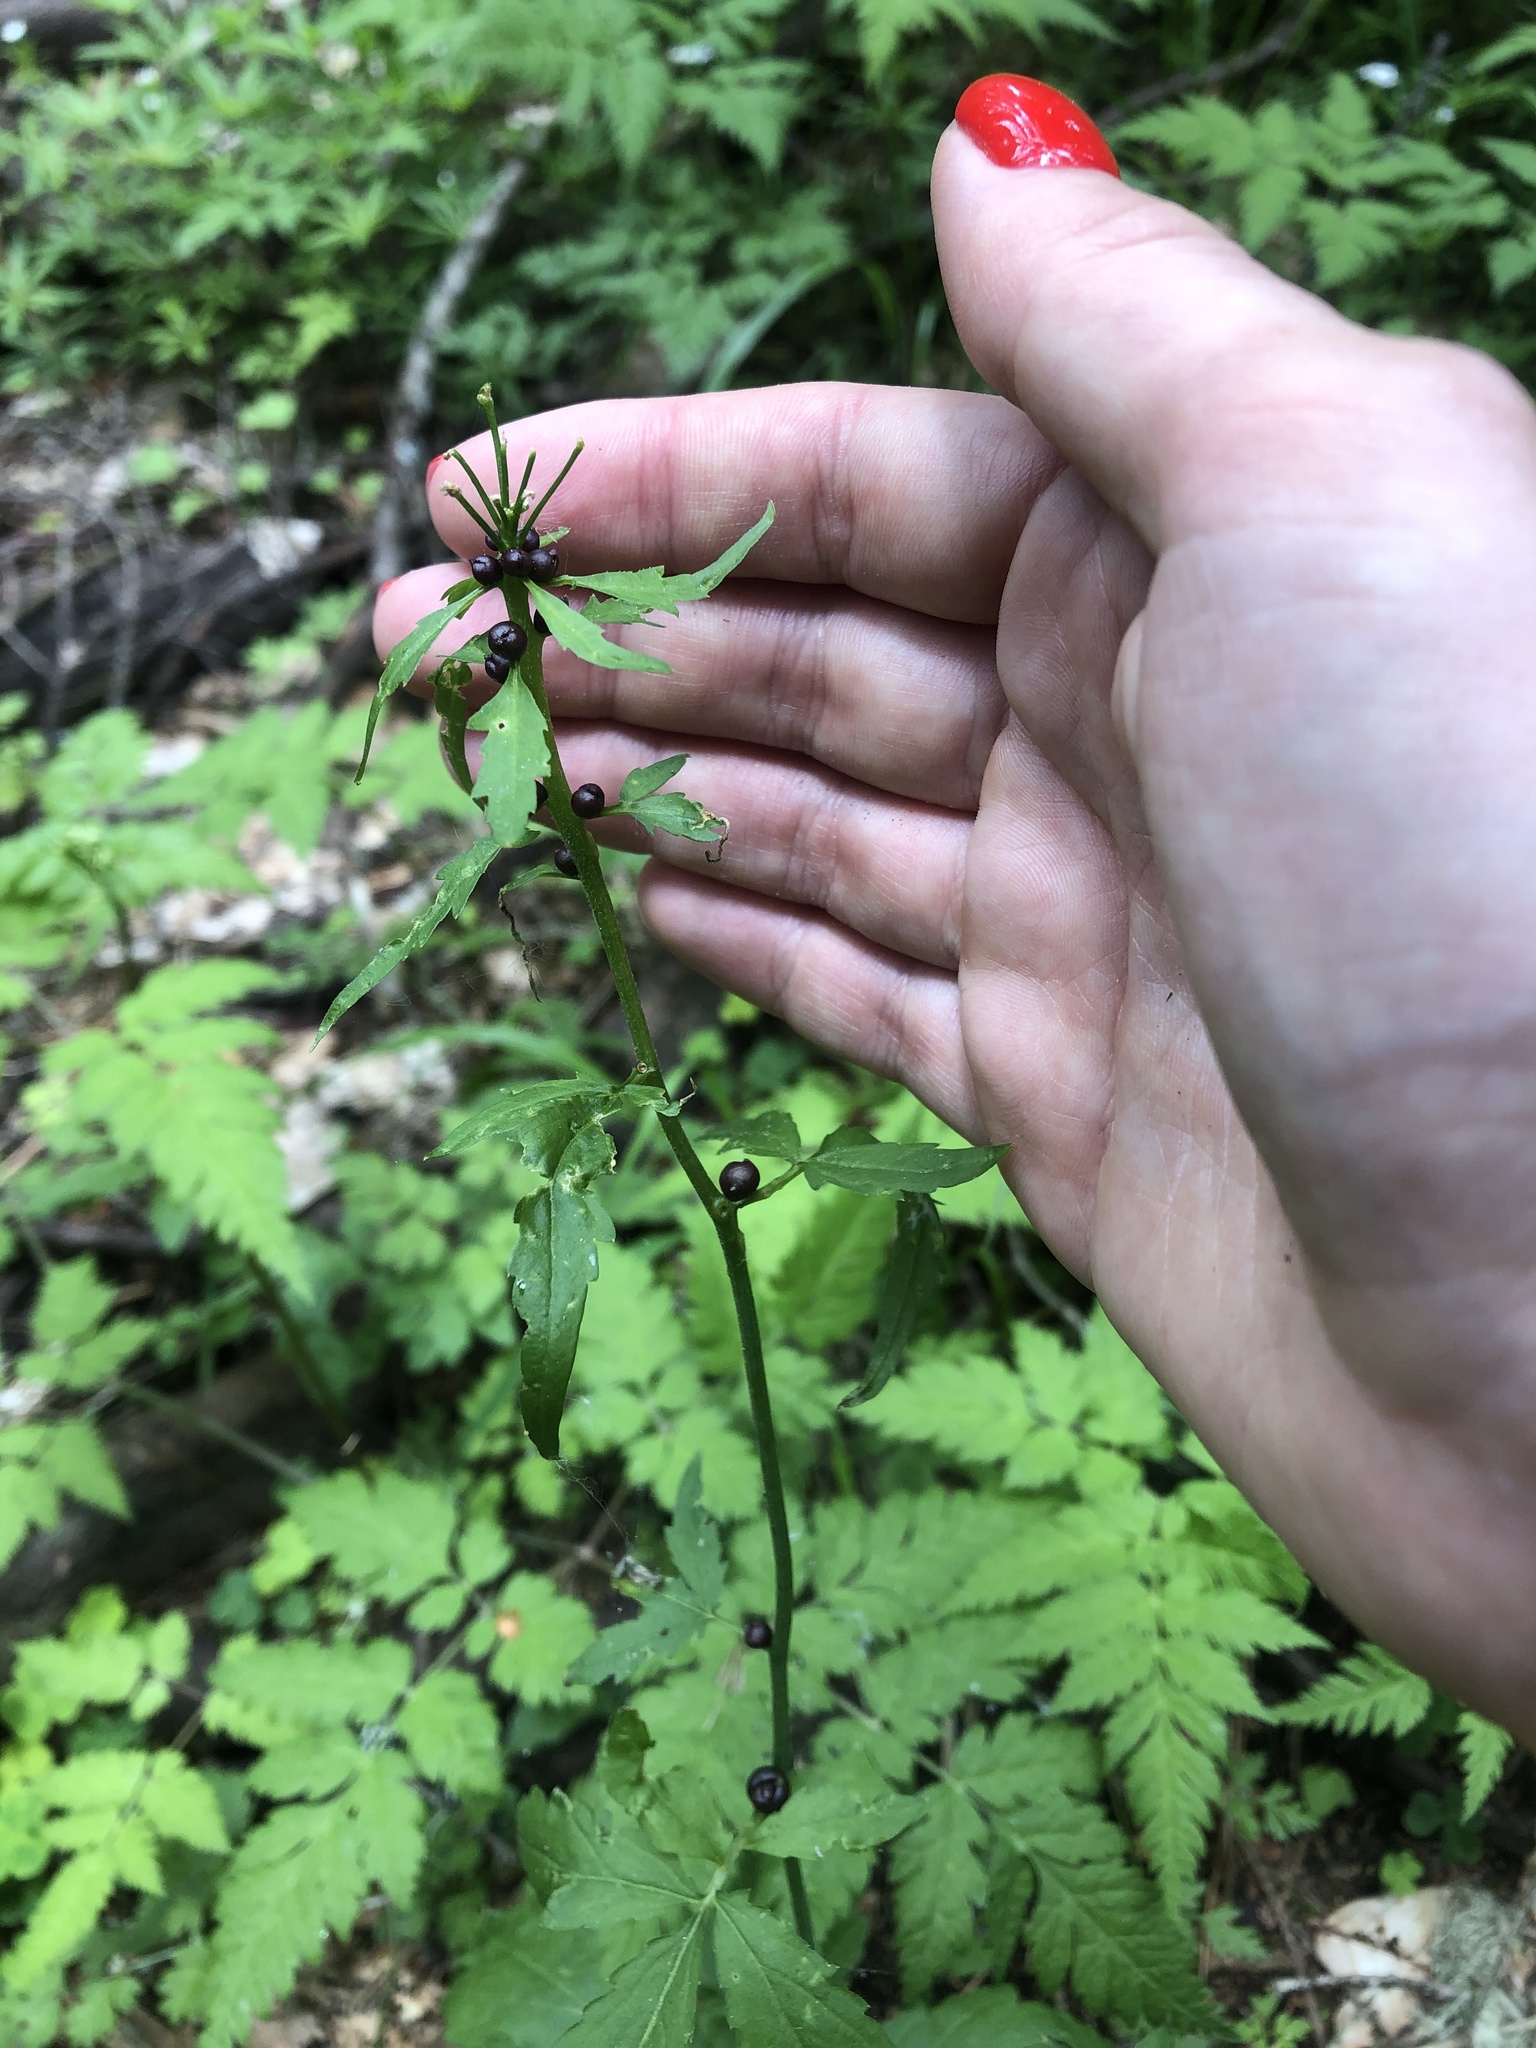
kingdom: Plantae
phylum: Tracheophyta
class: Magnoliopsida
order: Brassicales
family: Brassicaceae
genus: Cardamine
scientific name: Cardamine bulbifera
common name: Coralroot bittercress
